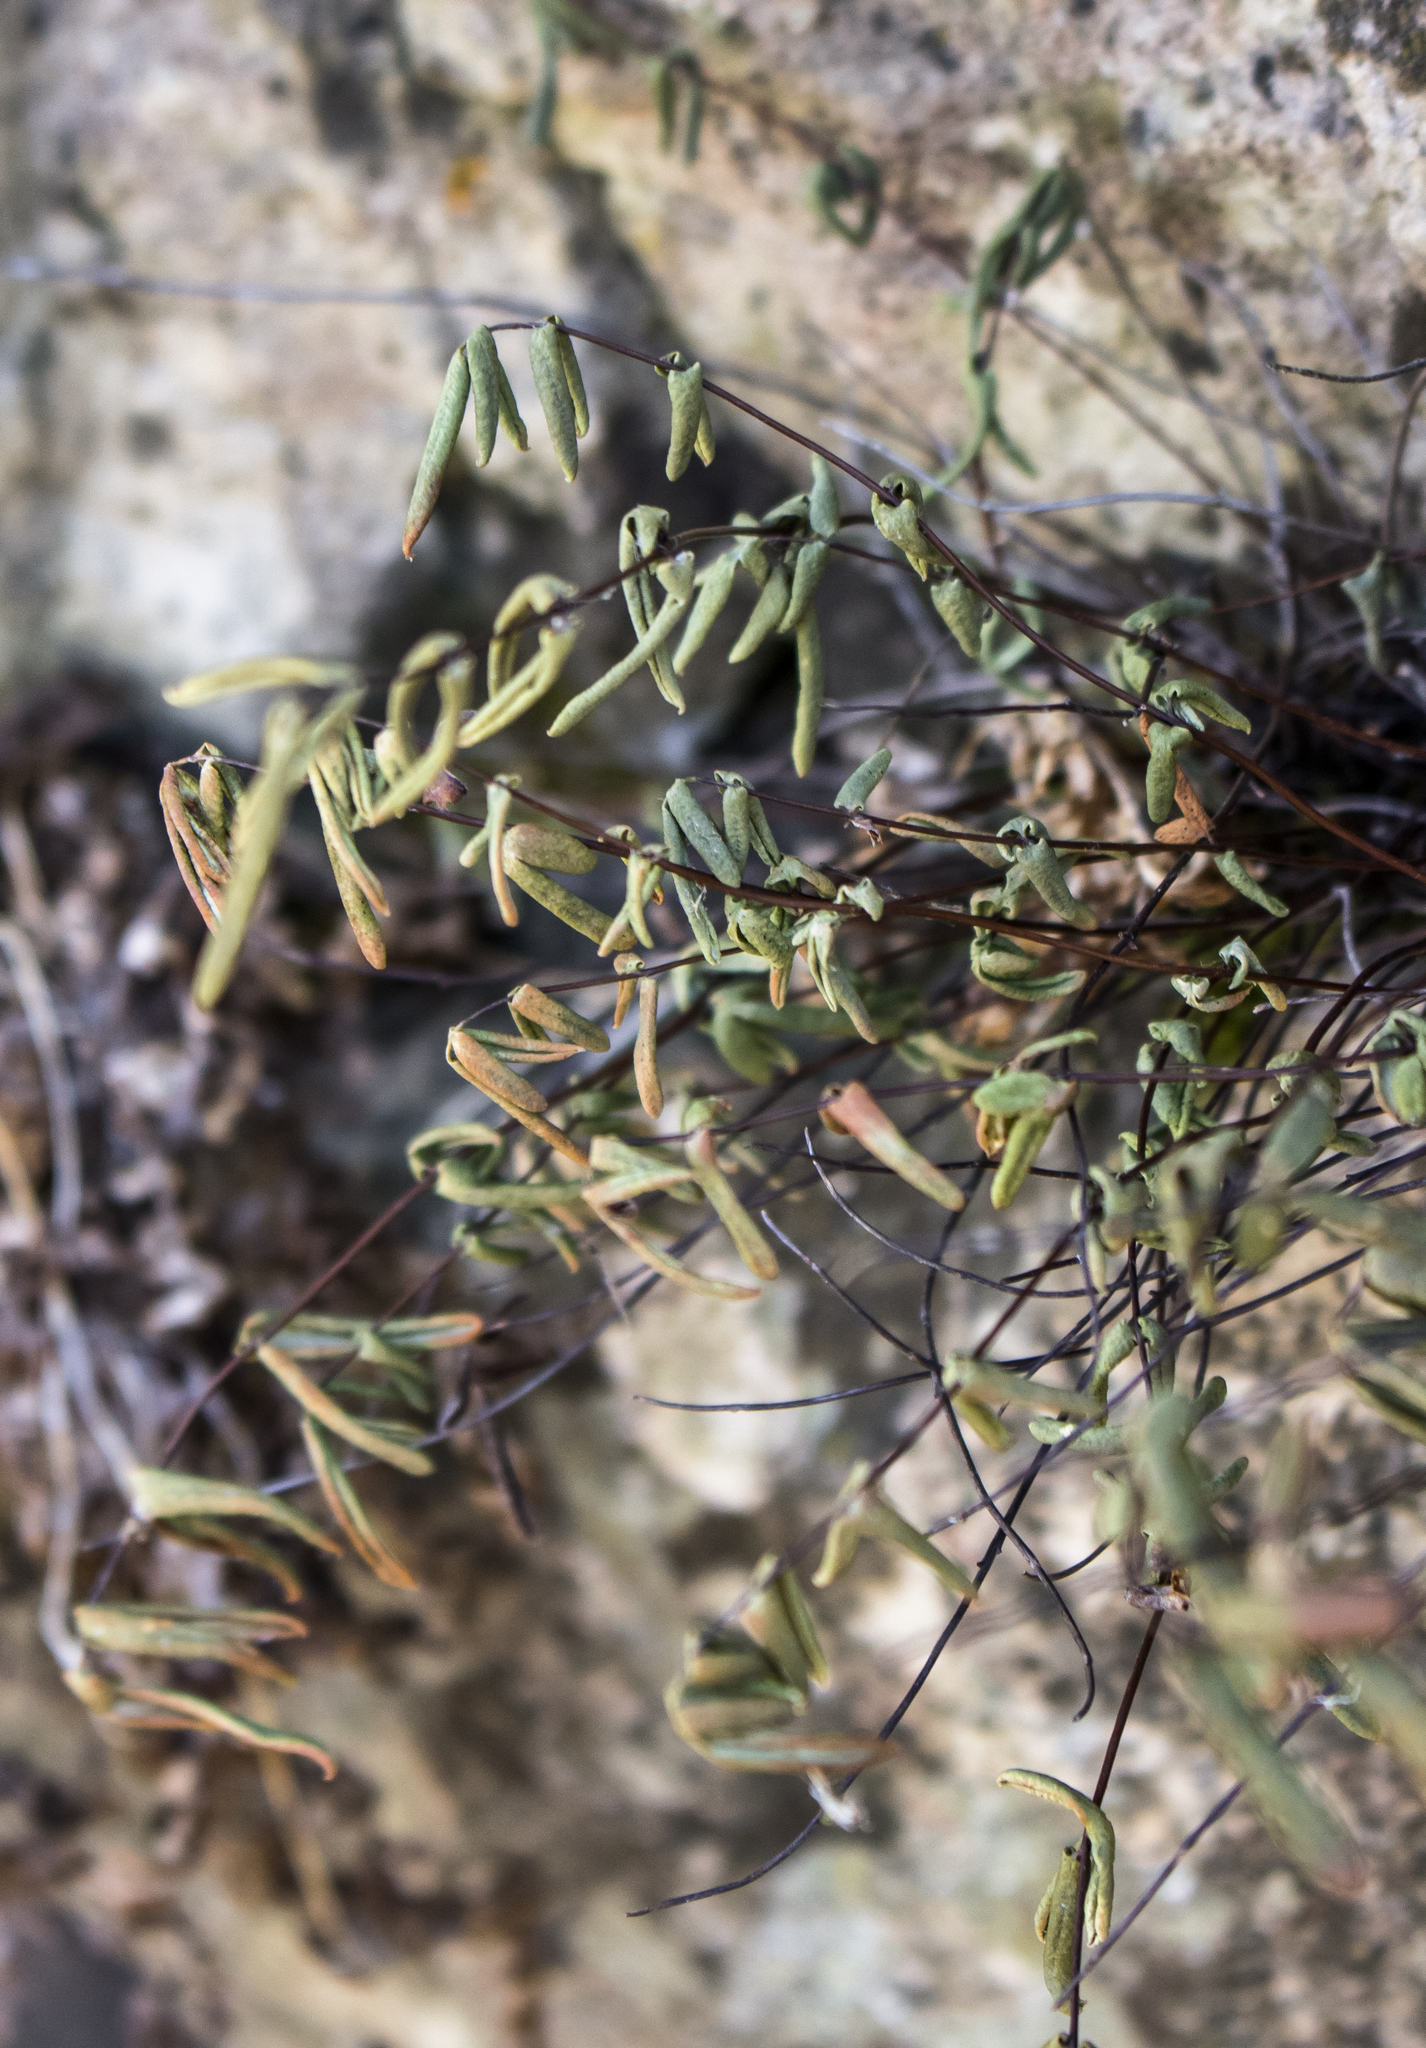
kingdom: Plantae
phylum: Tracheophyta
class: Polypodiopsida
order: Polypodiales
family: Pteridaceae
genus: Pellaea
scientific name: Pellaea glabella
